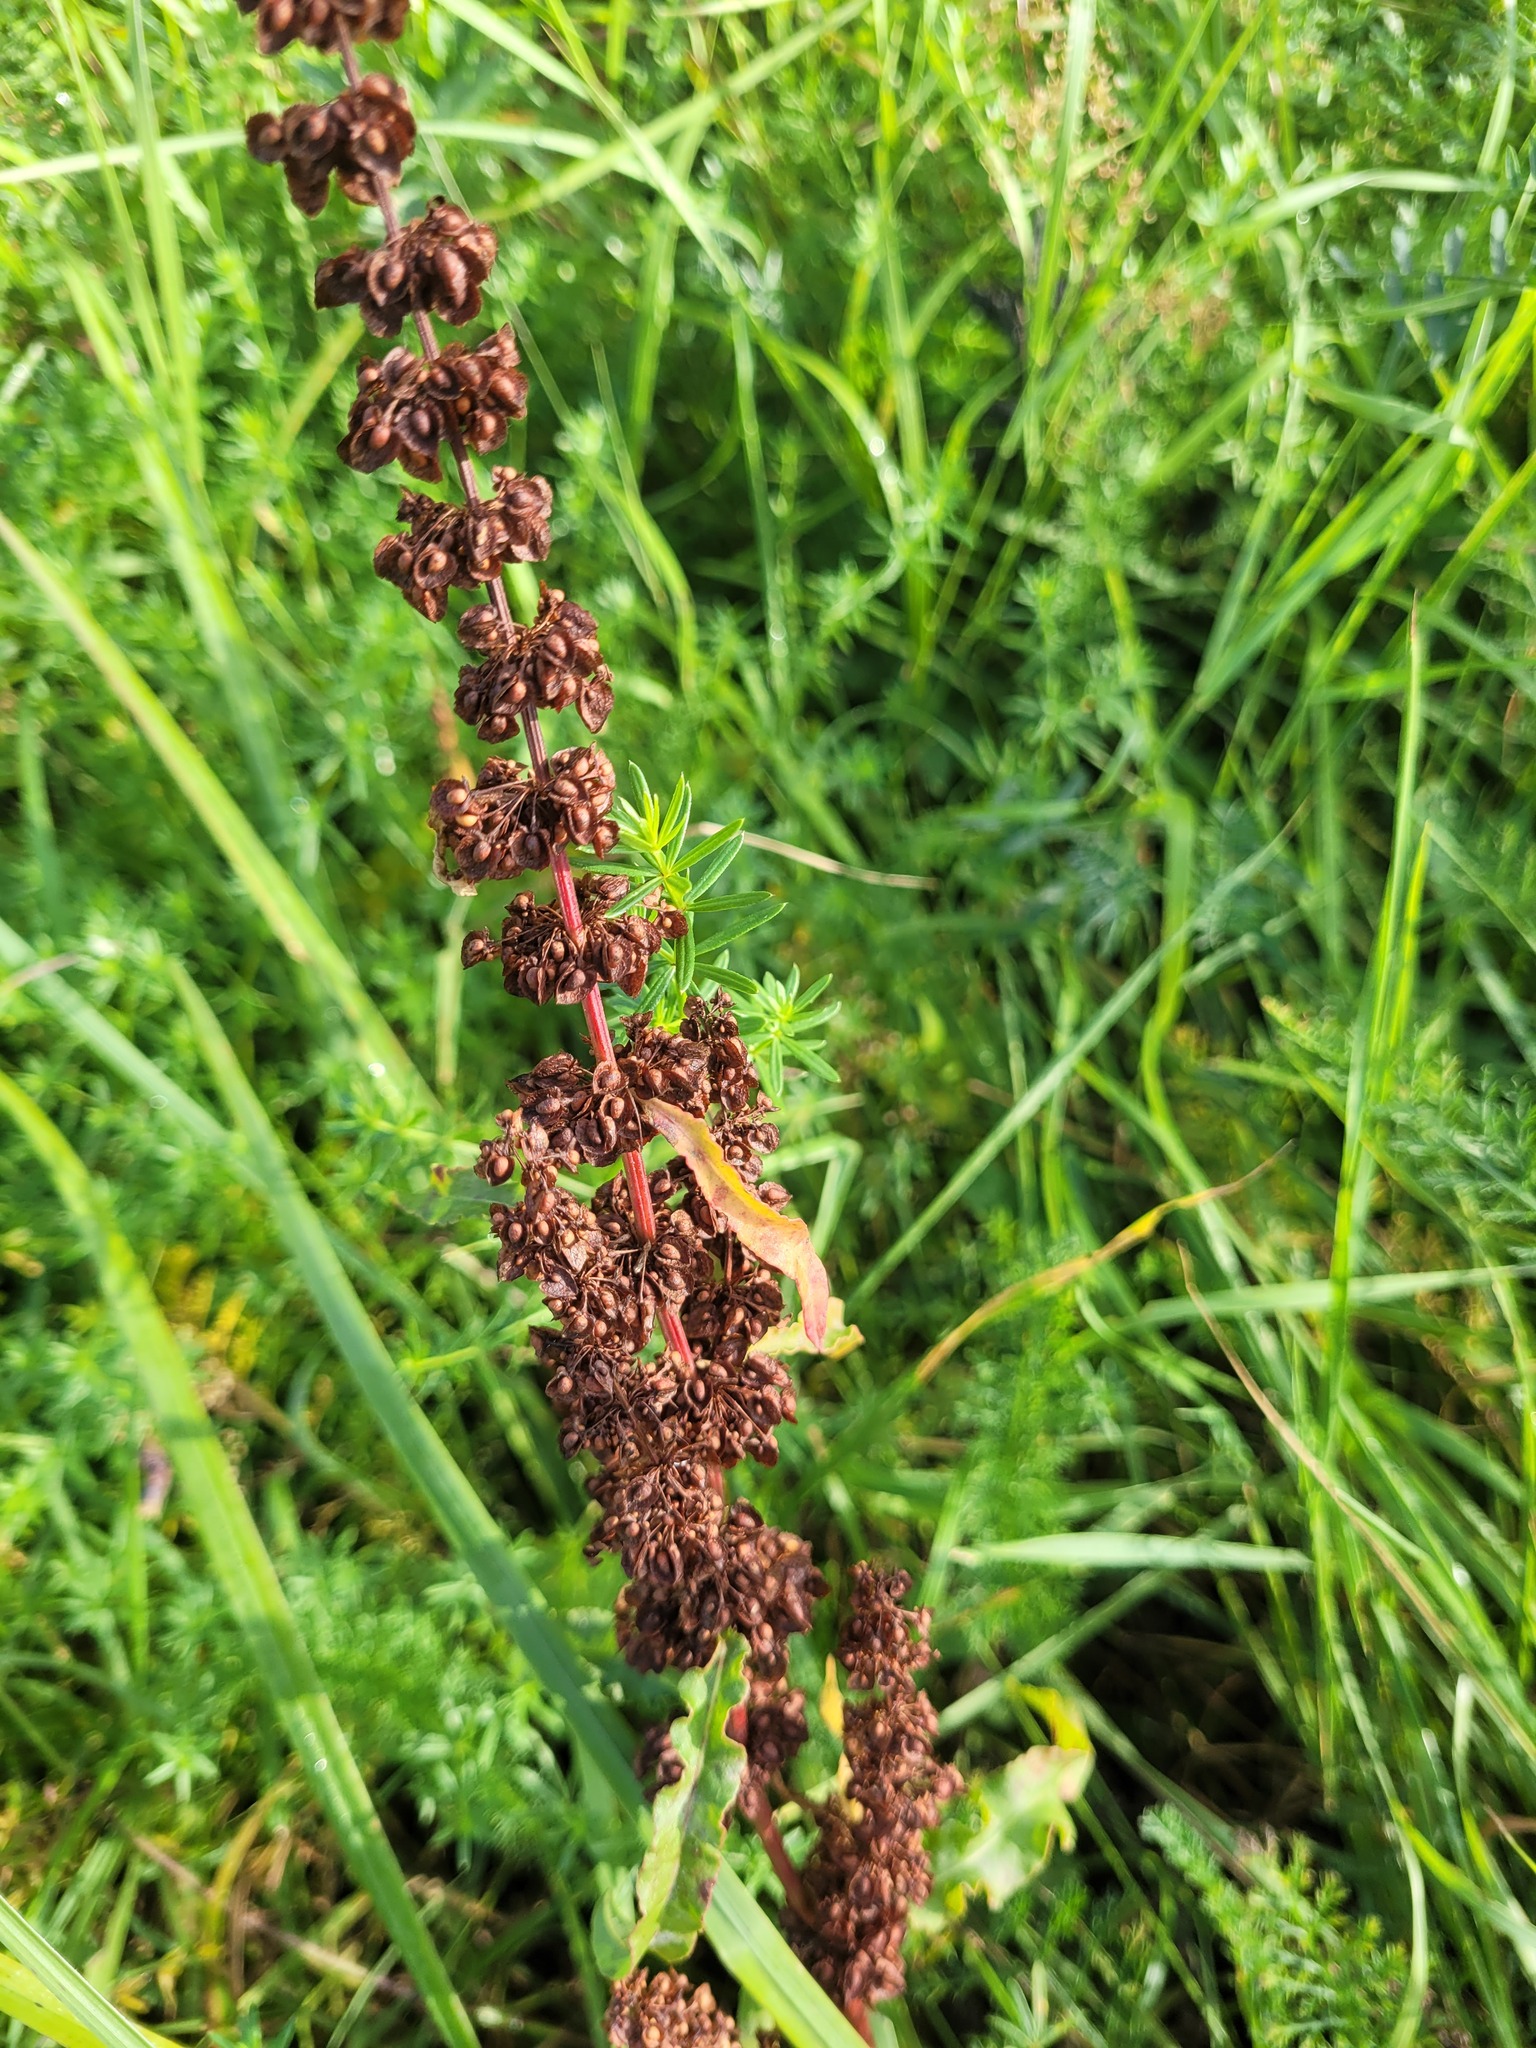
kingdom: Plantae
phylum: Tracheophyta
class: Magnoliopsida
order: Caryophyllales
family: Polygonaceae
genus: Rumex
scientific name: Rumex crispus
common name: Curled dock
